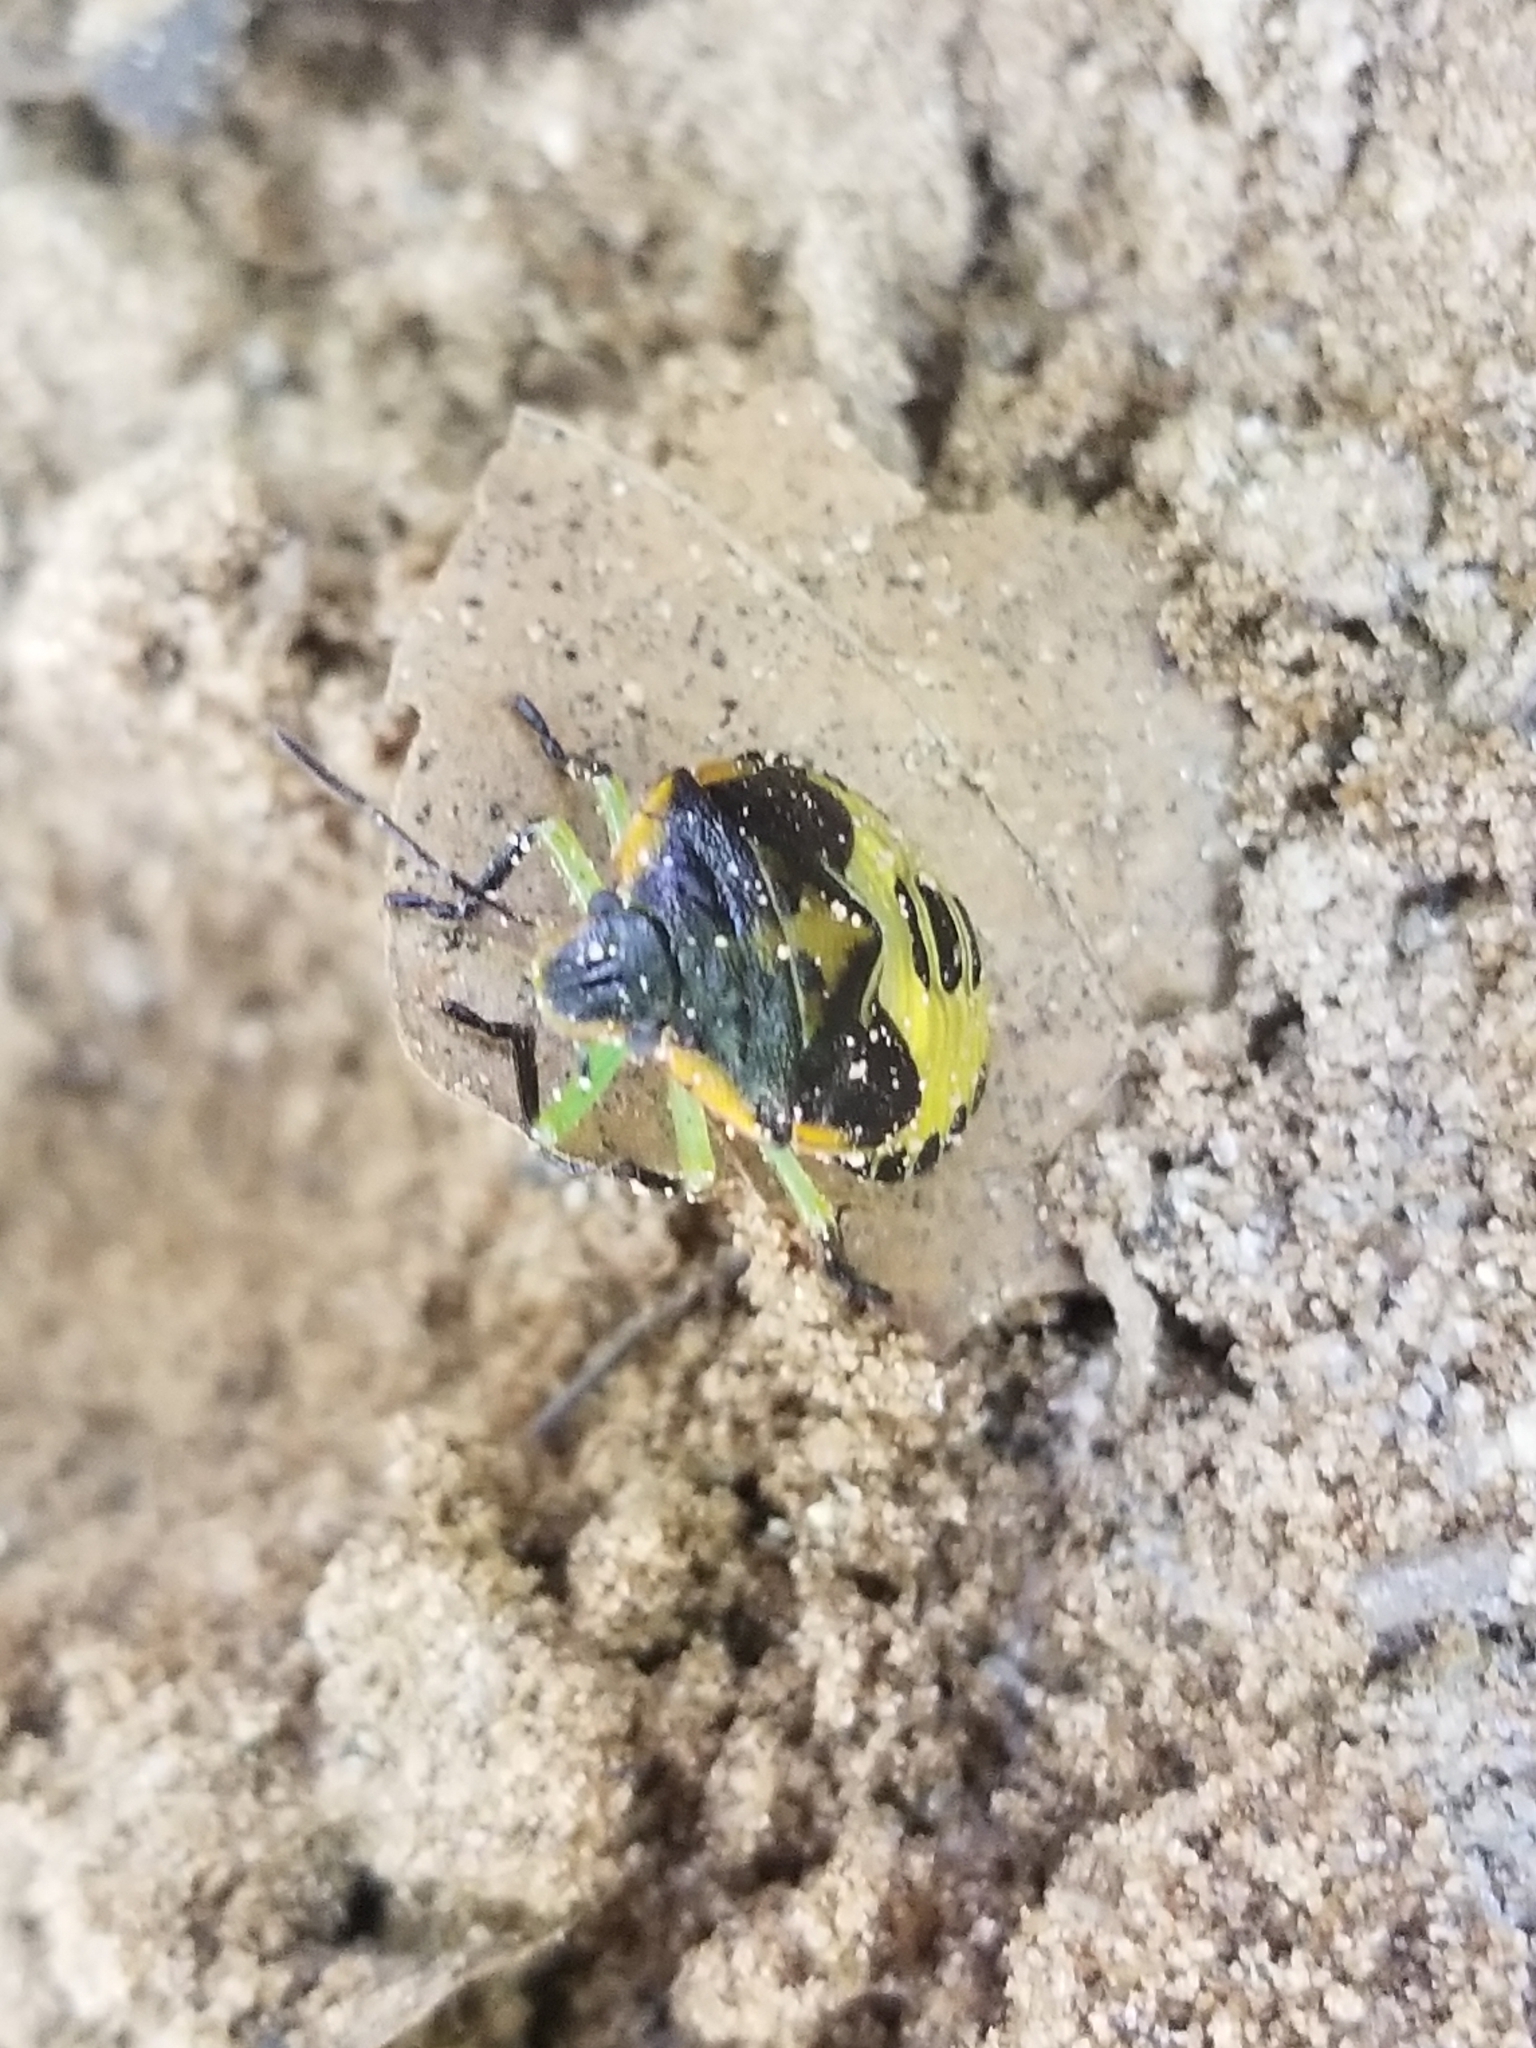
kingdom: Animalia
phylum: Arthropoda
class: Insecta
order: Hemiptera
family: Pentatomidae
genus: Chinavia
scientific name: Chinavia hilaris
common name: Green stink bug
